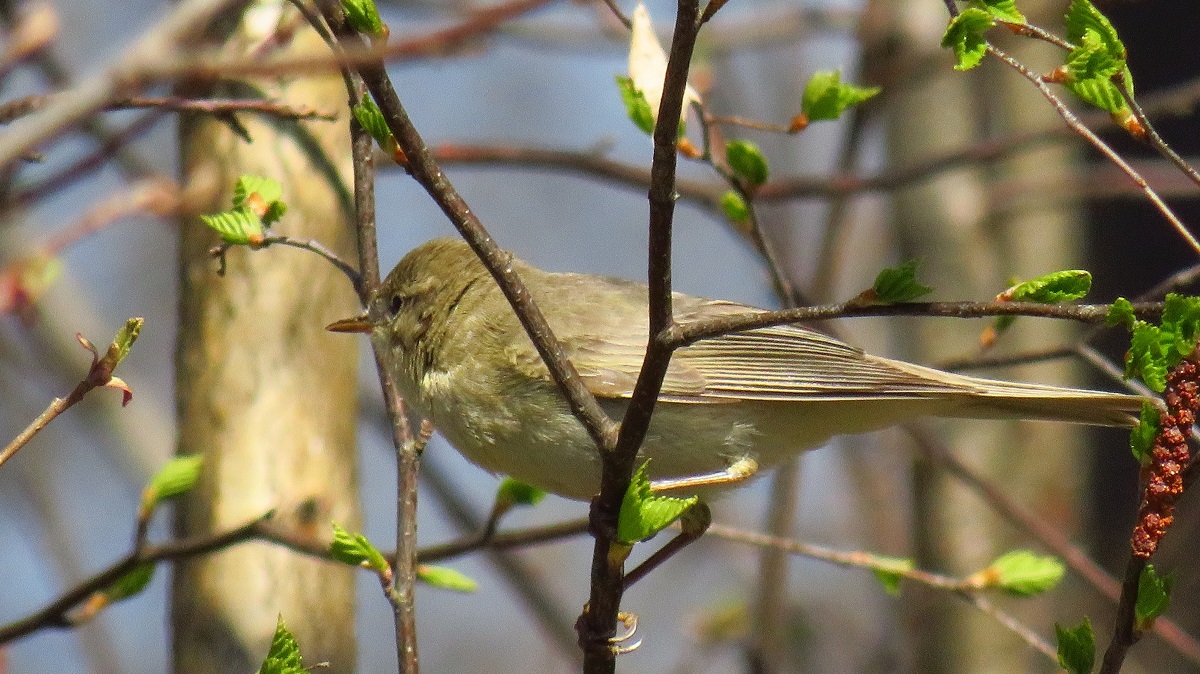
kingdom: Animalia
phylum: Chordata
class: Aves
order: Passeriformes
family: Phylloscopidae
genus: Phylloscopus
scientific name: Phylloscopus trochilus
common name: Willow warbler
